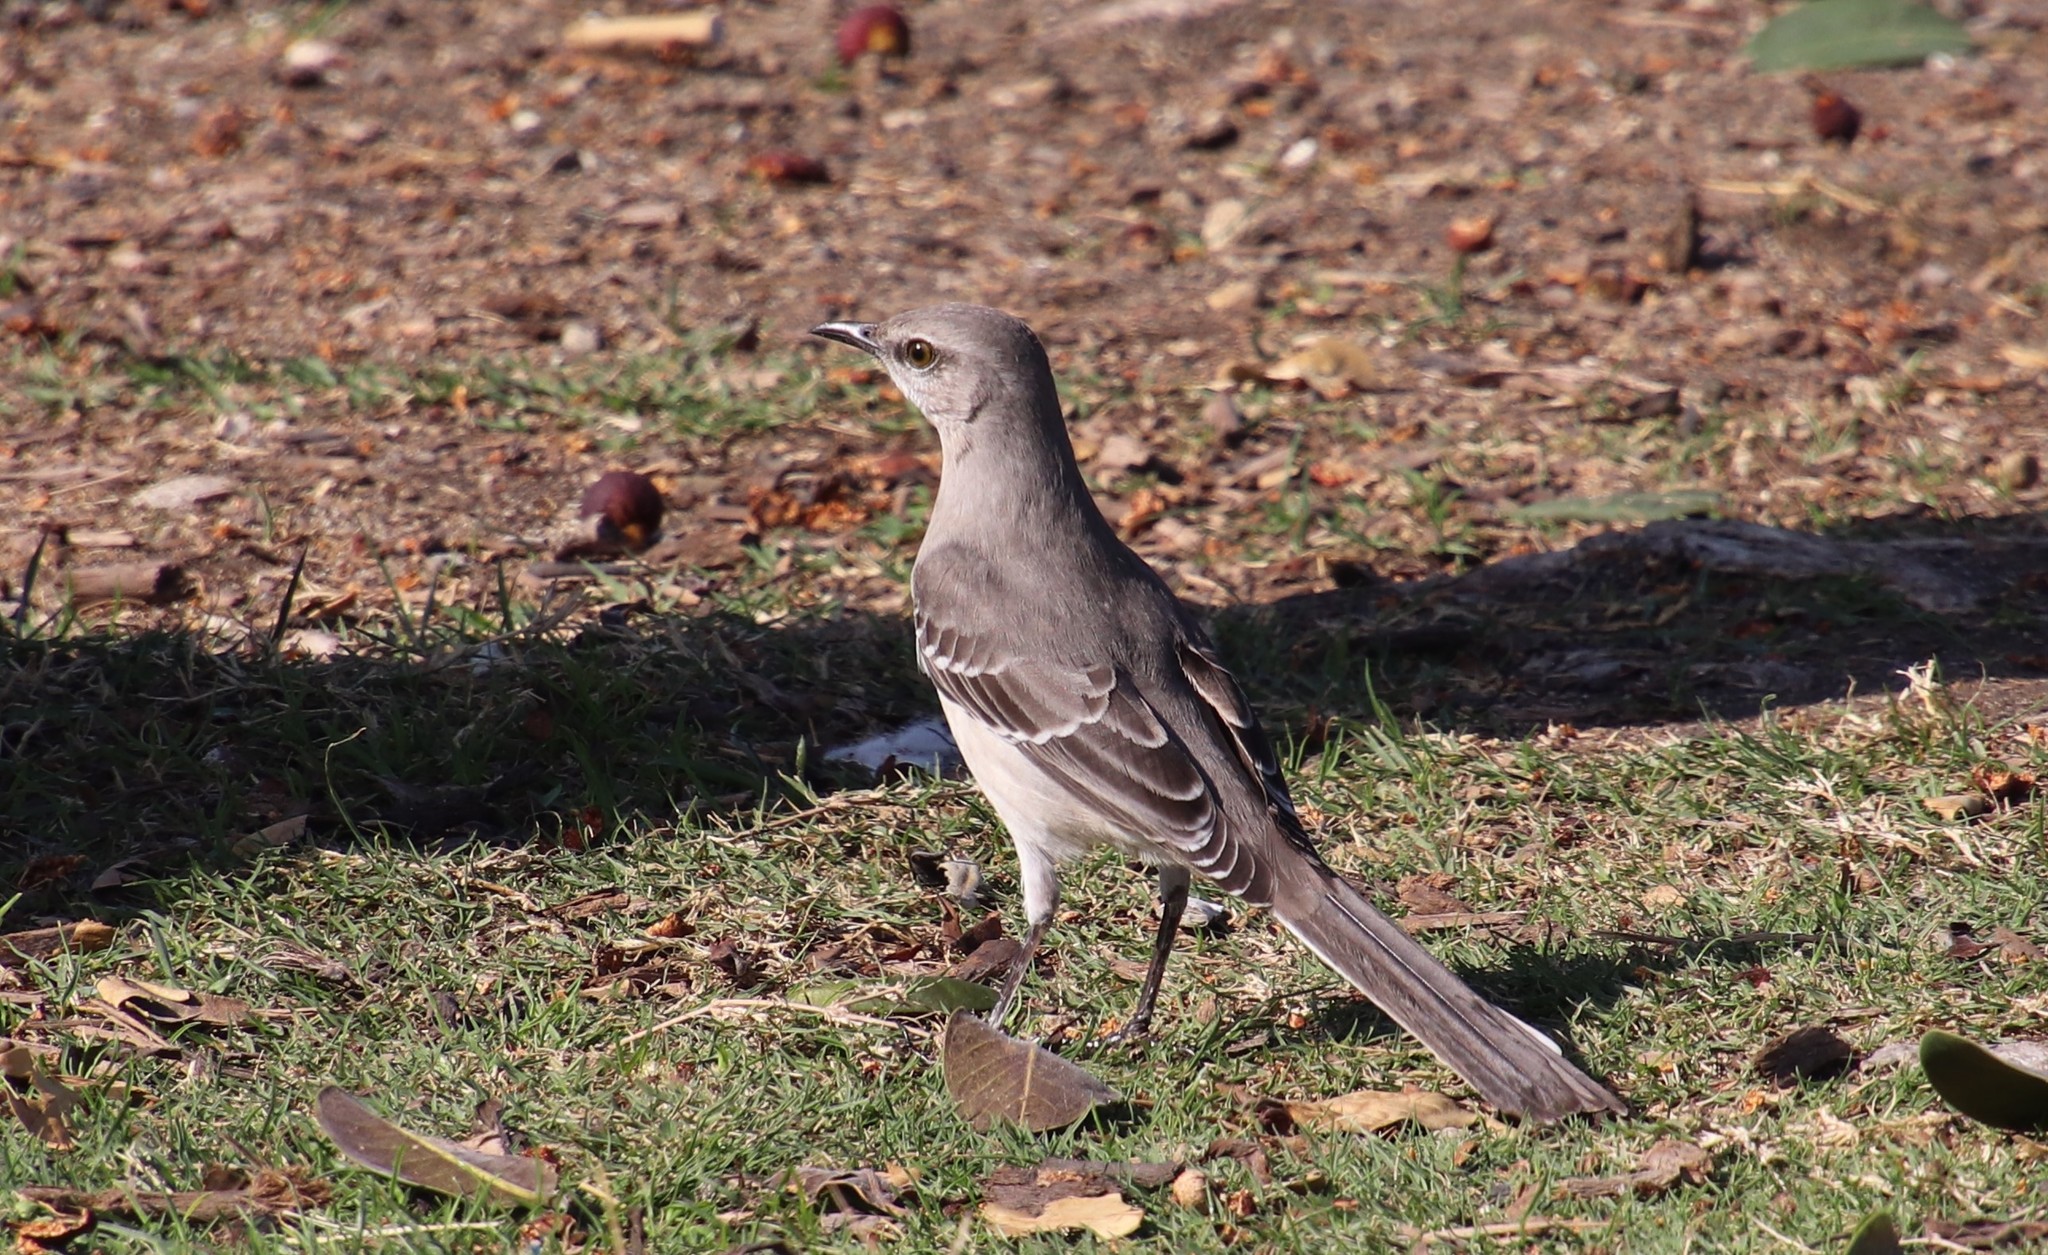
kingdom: Animalia
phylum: Chordata
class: Aves
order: Passeriformes
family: Mimidae
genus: Mimus
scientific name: Mimus polyglottos
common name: Northern mockingbird
